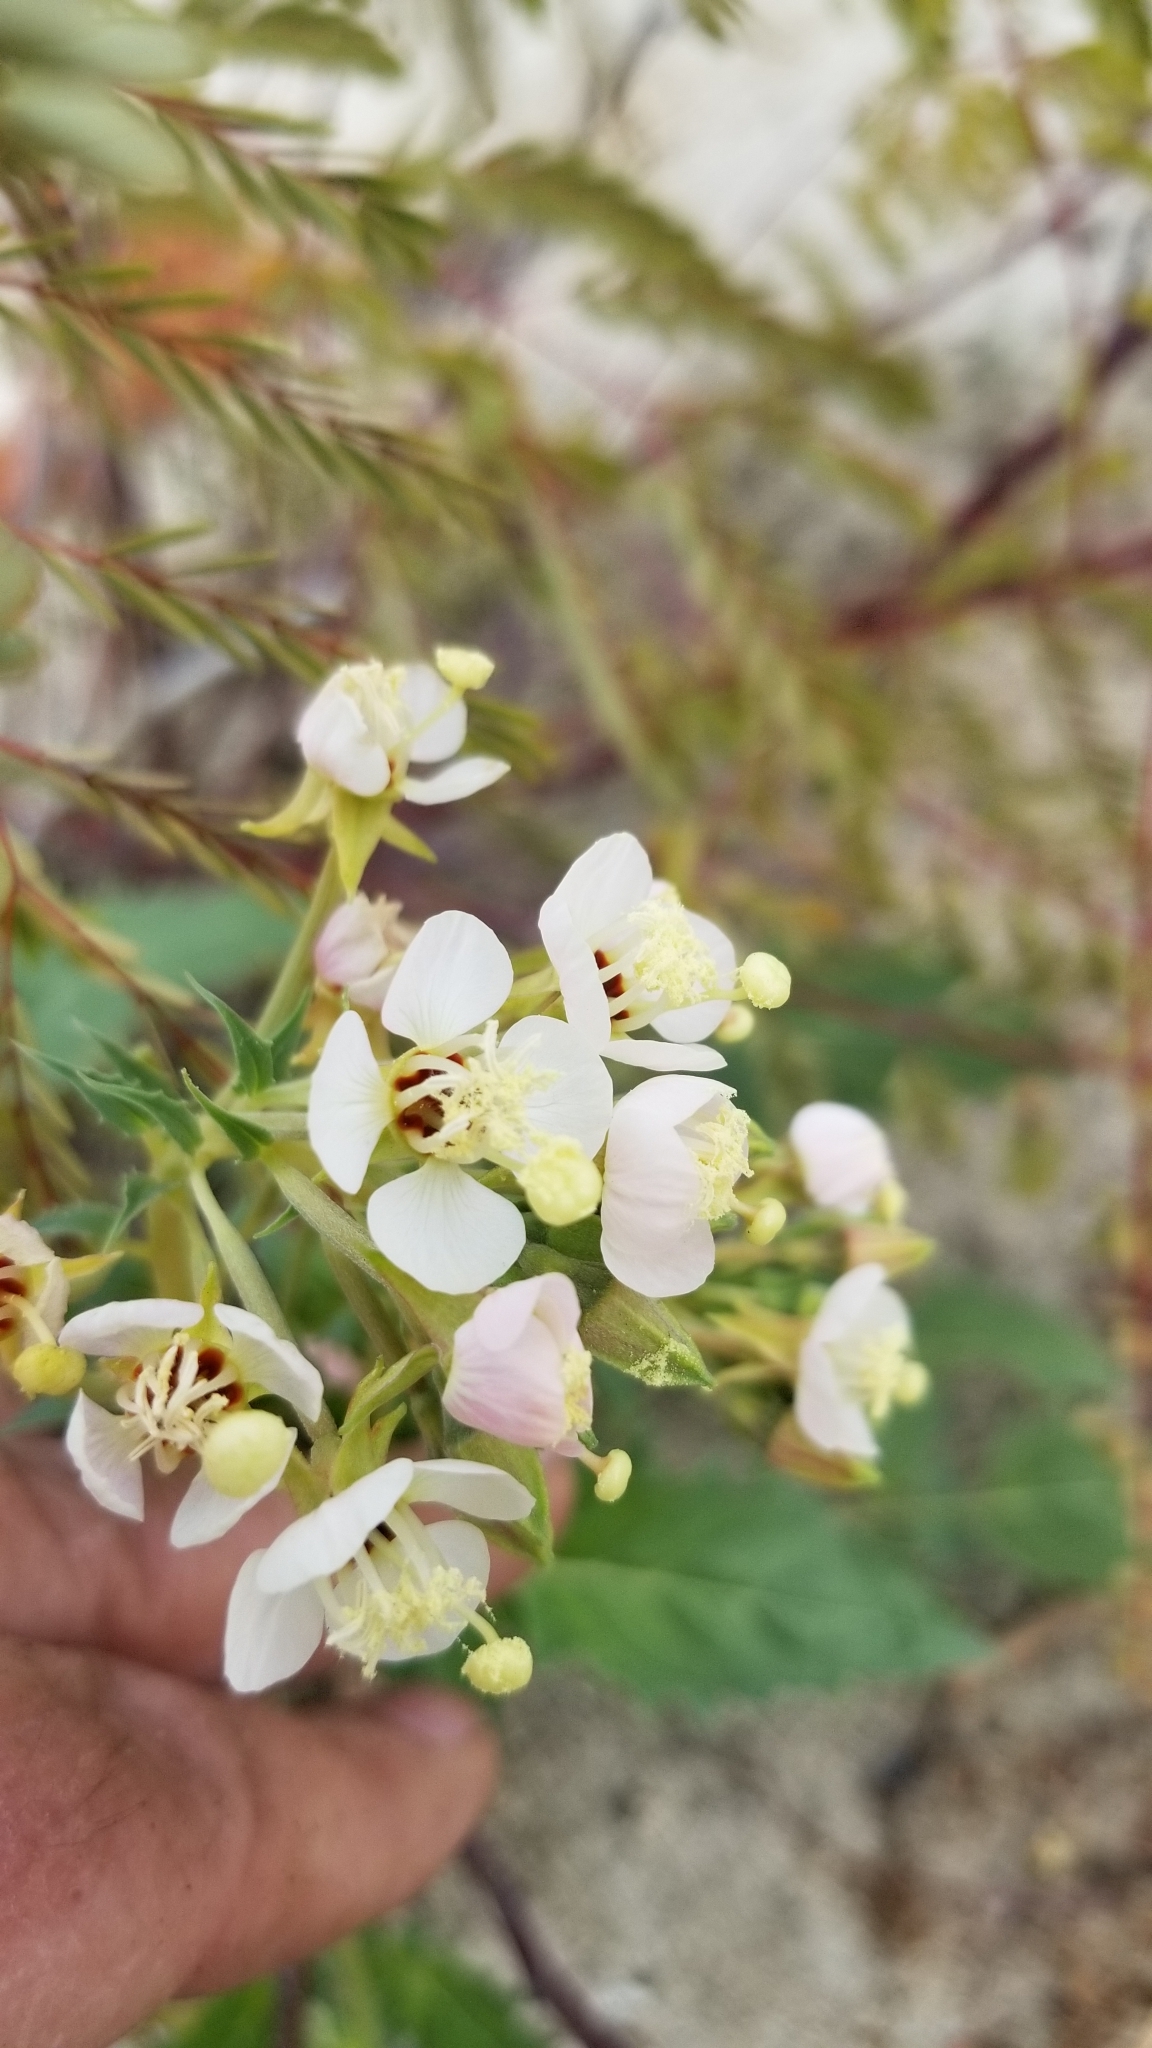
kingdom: Plantae
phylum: Tracheophyta
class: Magnoliopsida
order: Myrtales
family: Onagraceae
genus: Chylismia
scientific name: Chylismia claviformis
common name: Browneyes
